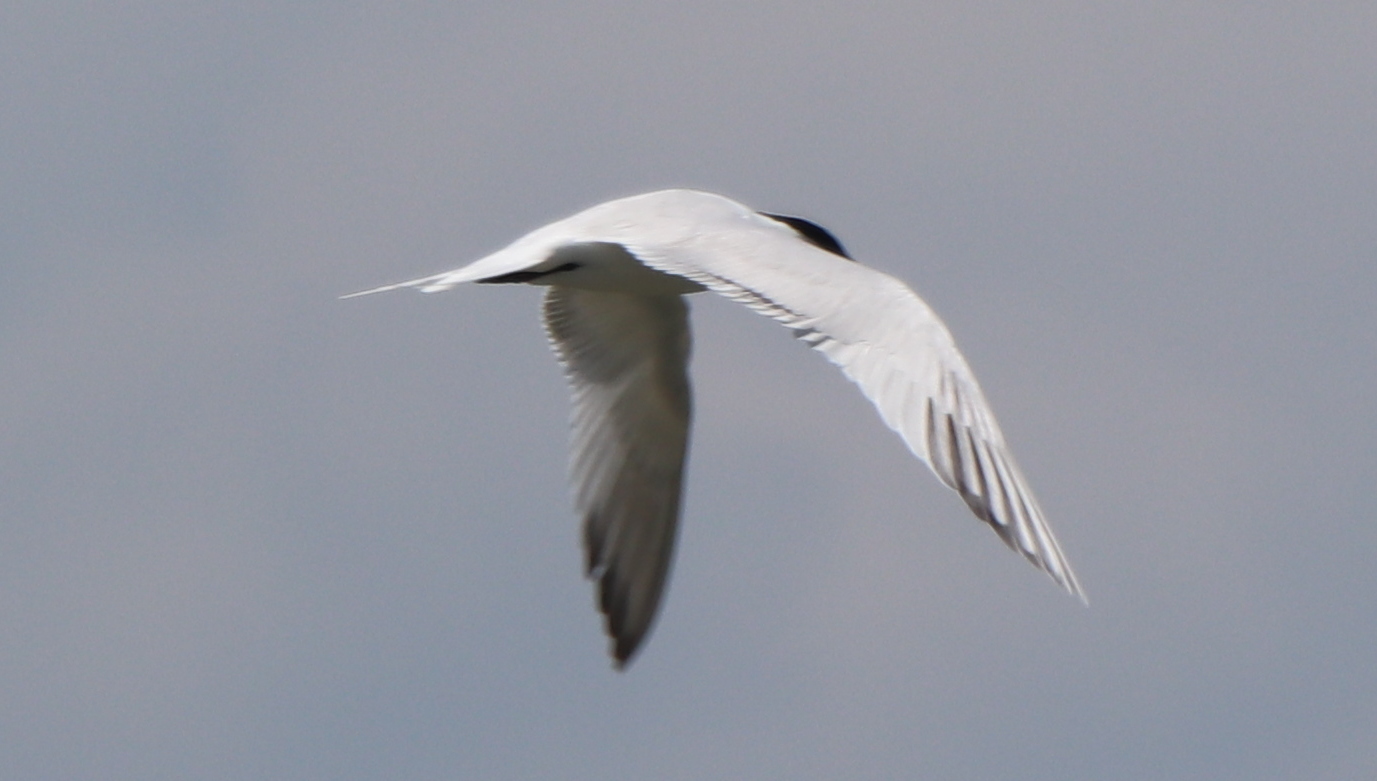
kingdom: Animalia
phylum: Chordata
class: Aves
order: Charadriiformes
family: Laridae
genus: Thalasseus
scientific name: Thalasseus maximus
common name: Royal tern
